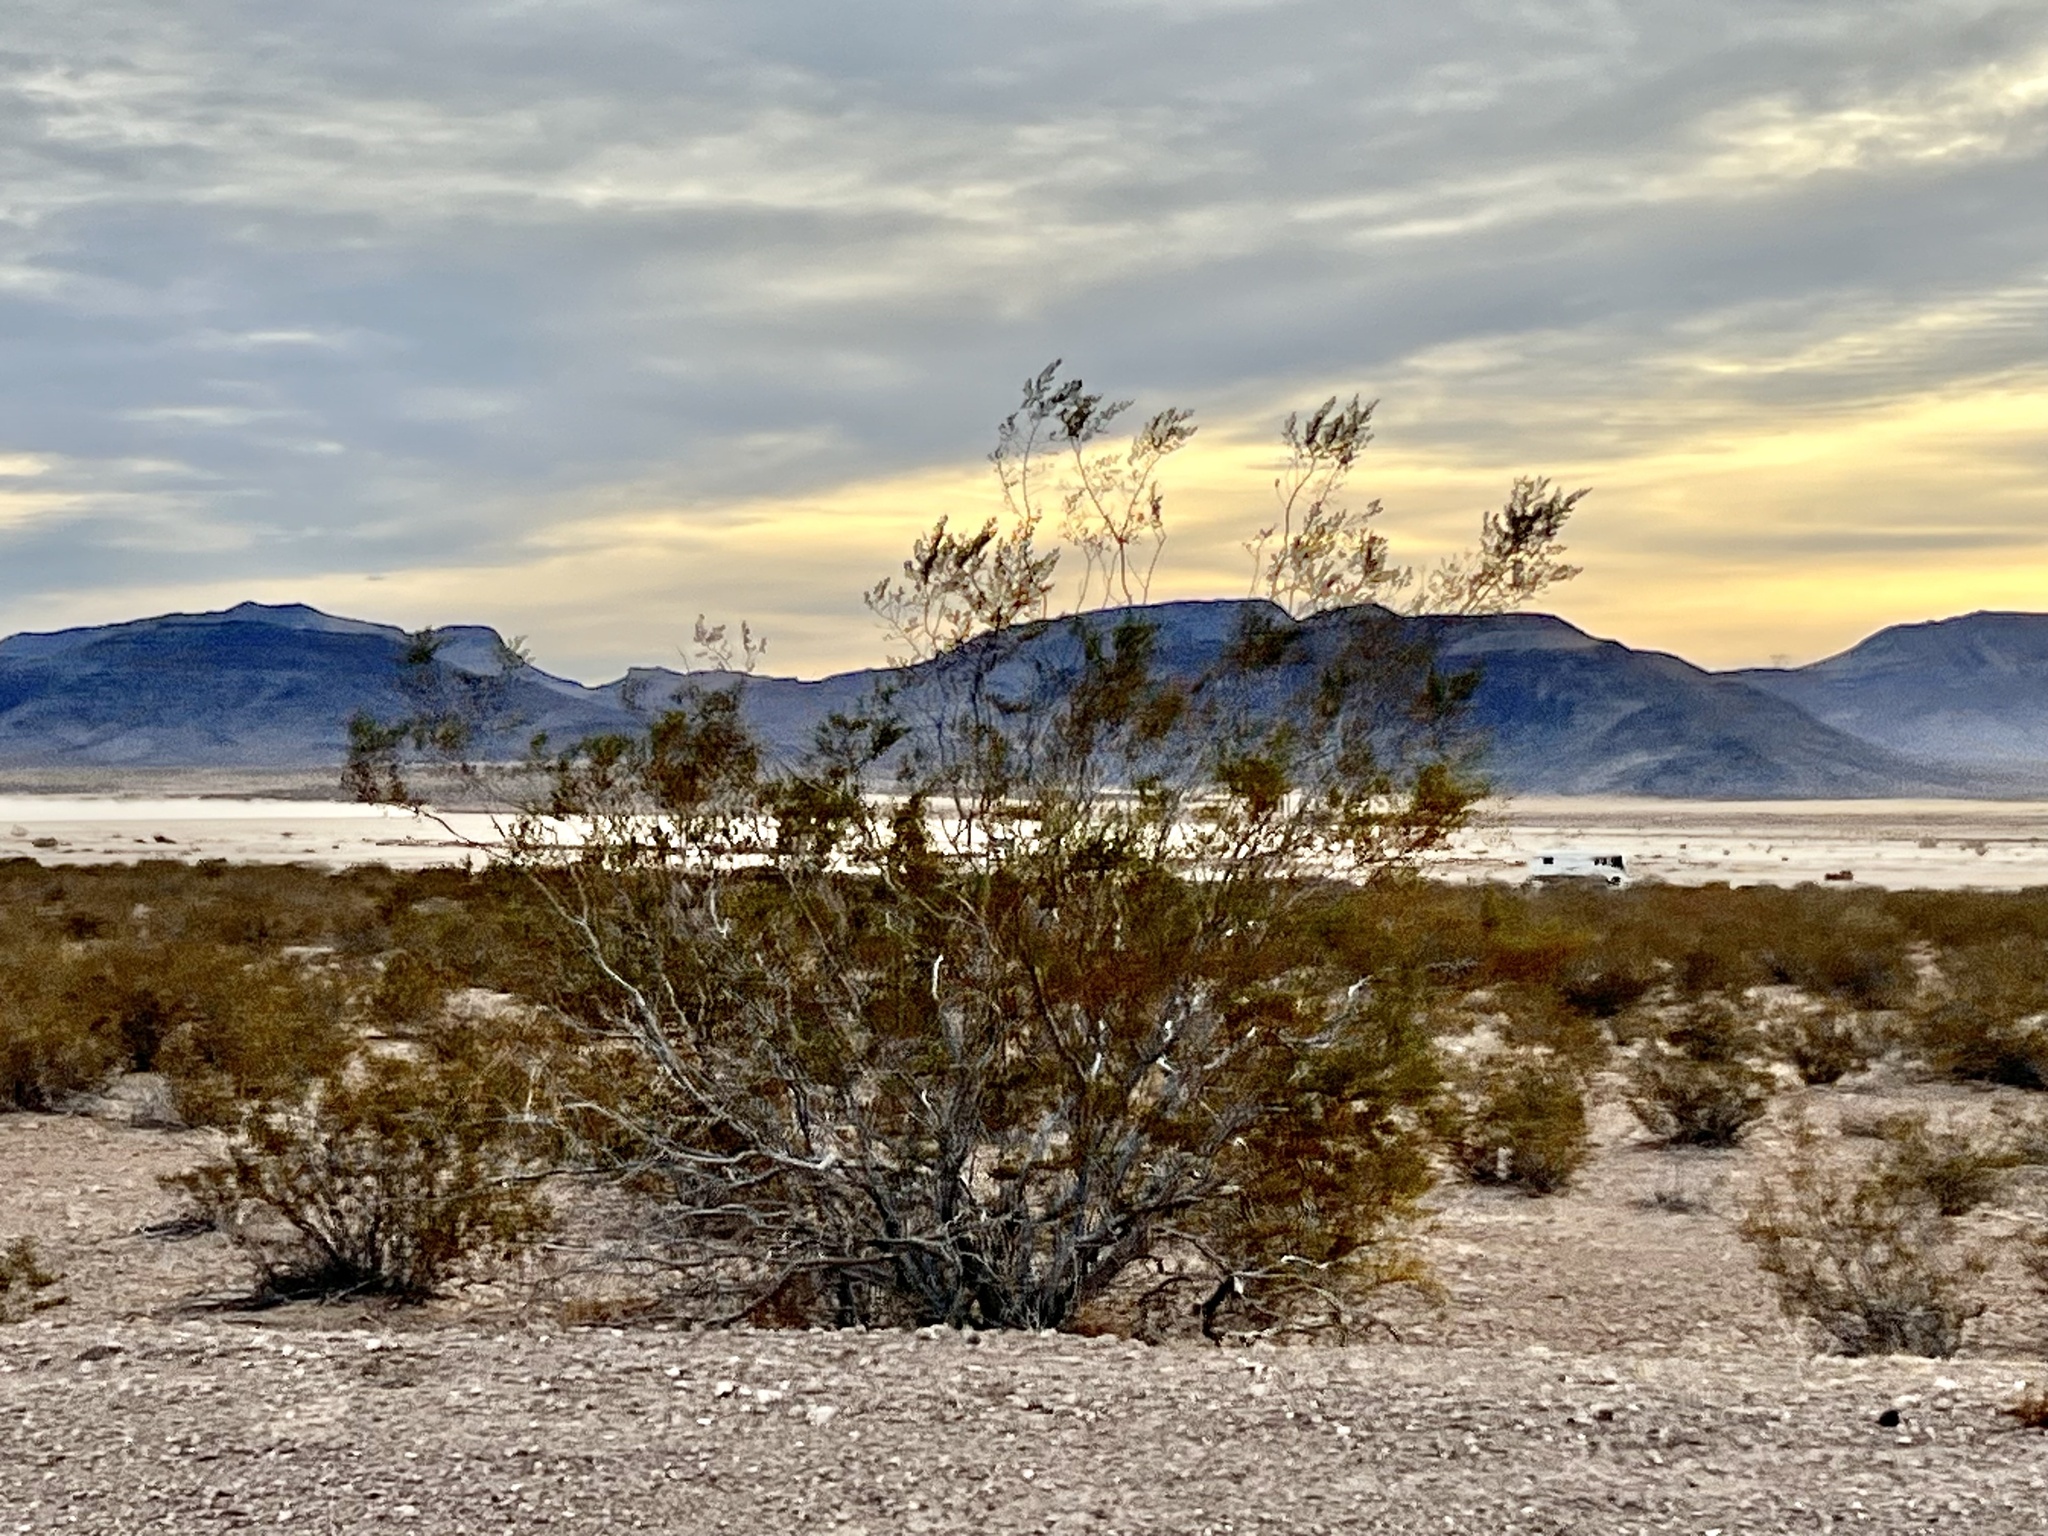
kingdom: Plantae
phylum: Tracheophyta
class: Magnoliopsida
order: Zygophyllales
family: Zygophyllaceae
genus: Larrea
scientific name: Larrea tridentata
